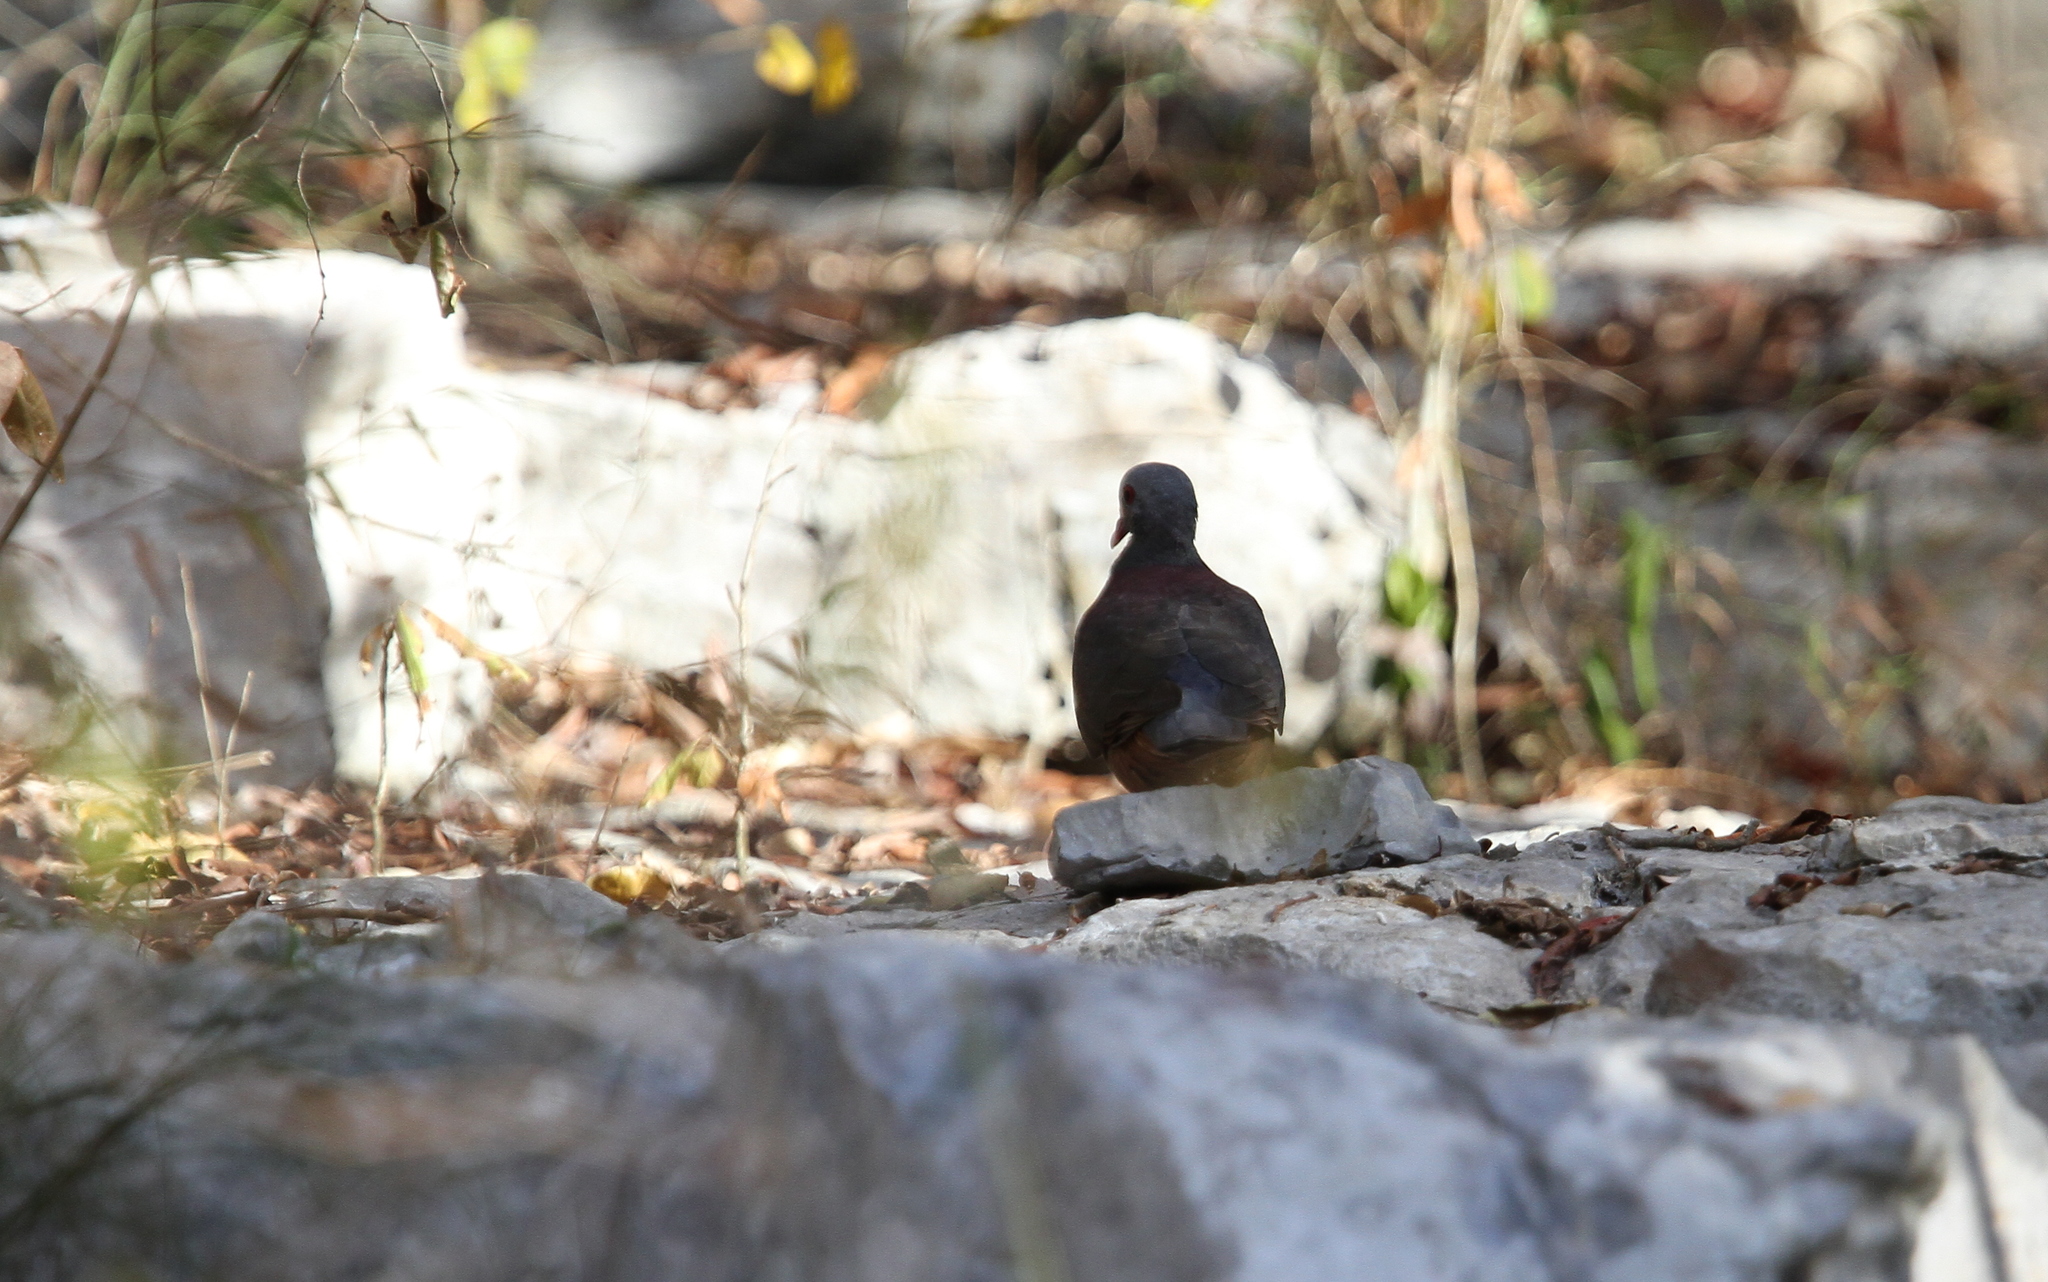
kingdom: Animalia
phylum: Chordata
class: Aves
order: Columbiformes
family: Columbidae
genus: Geotrygon
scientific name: Geotrygon caniceps
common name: Gray-fronted quail-dove
